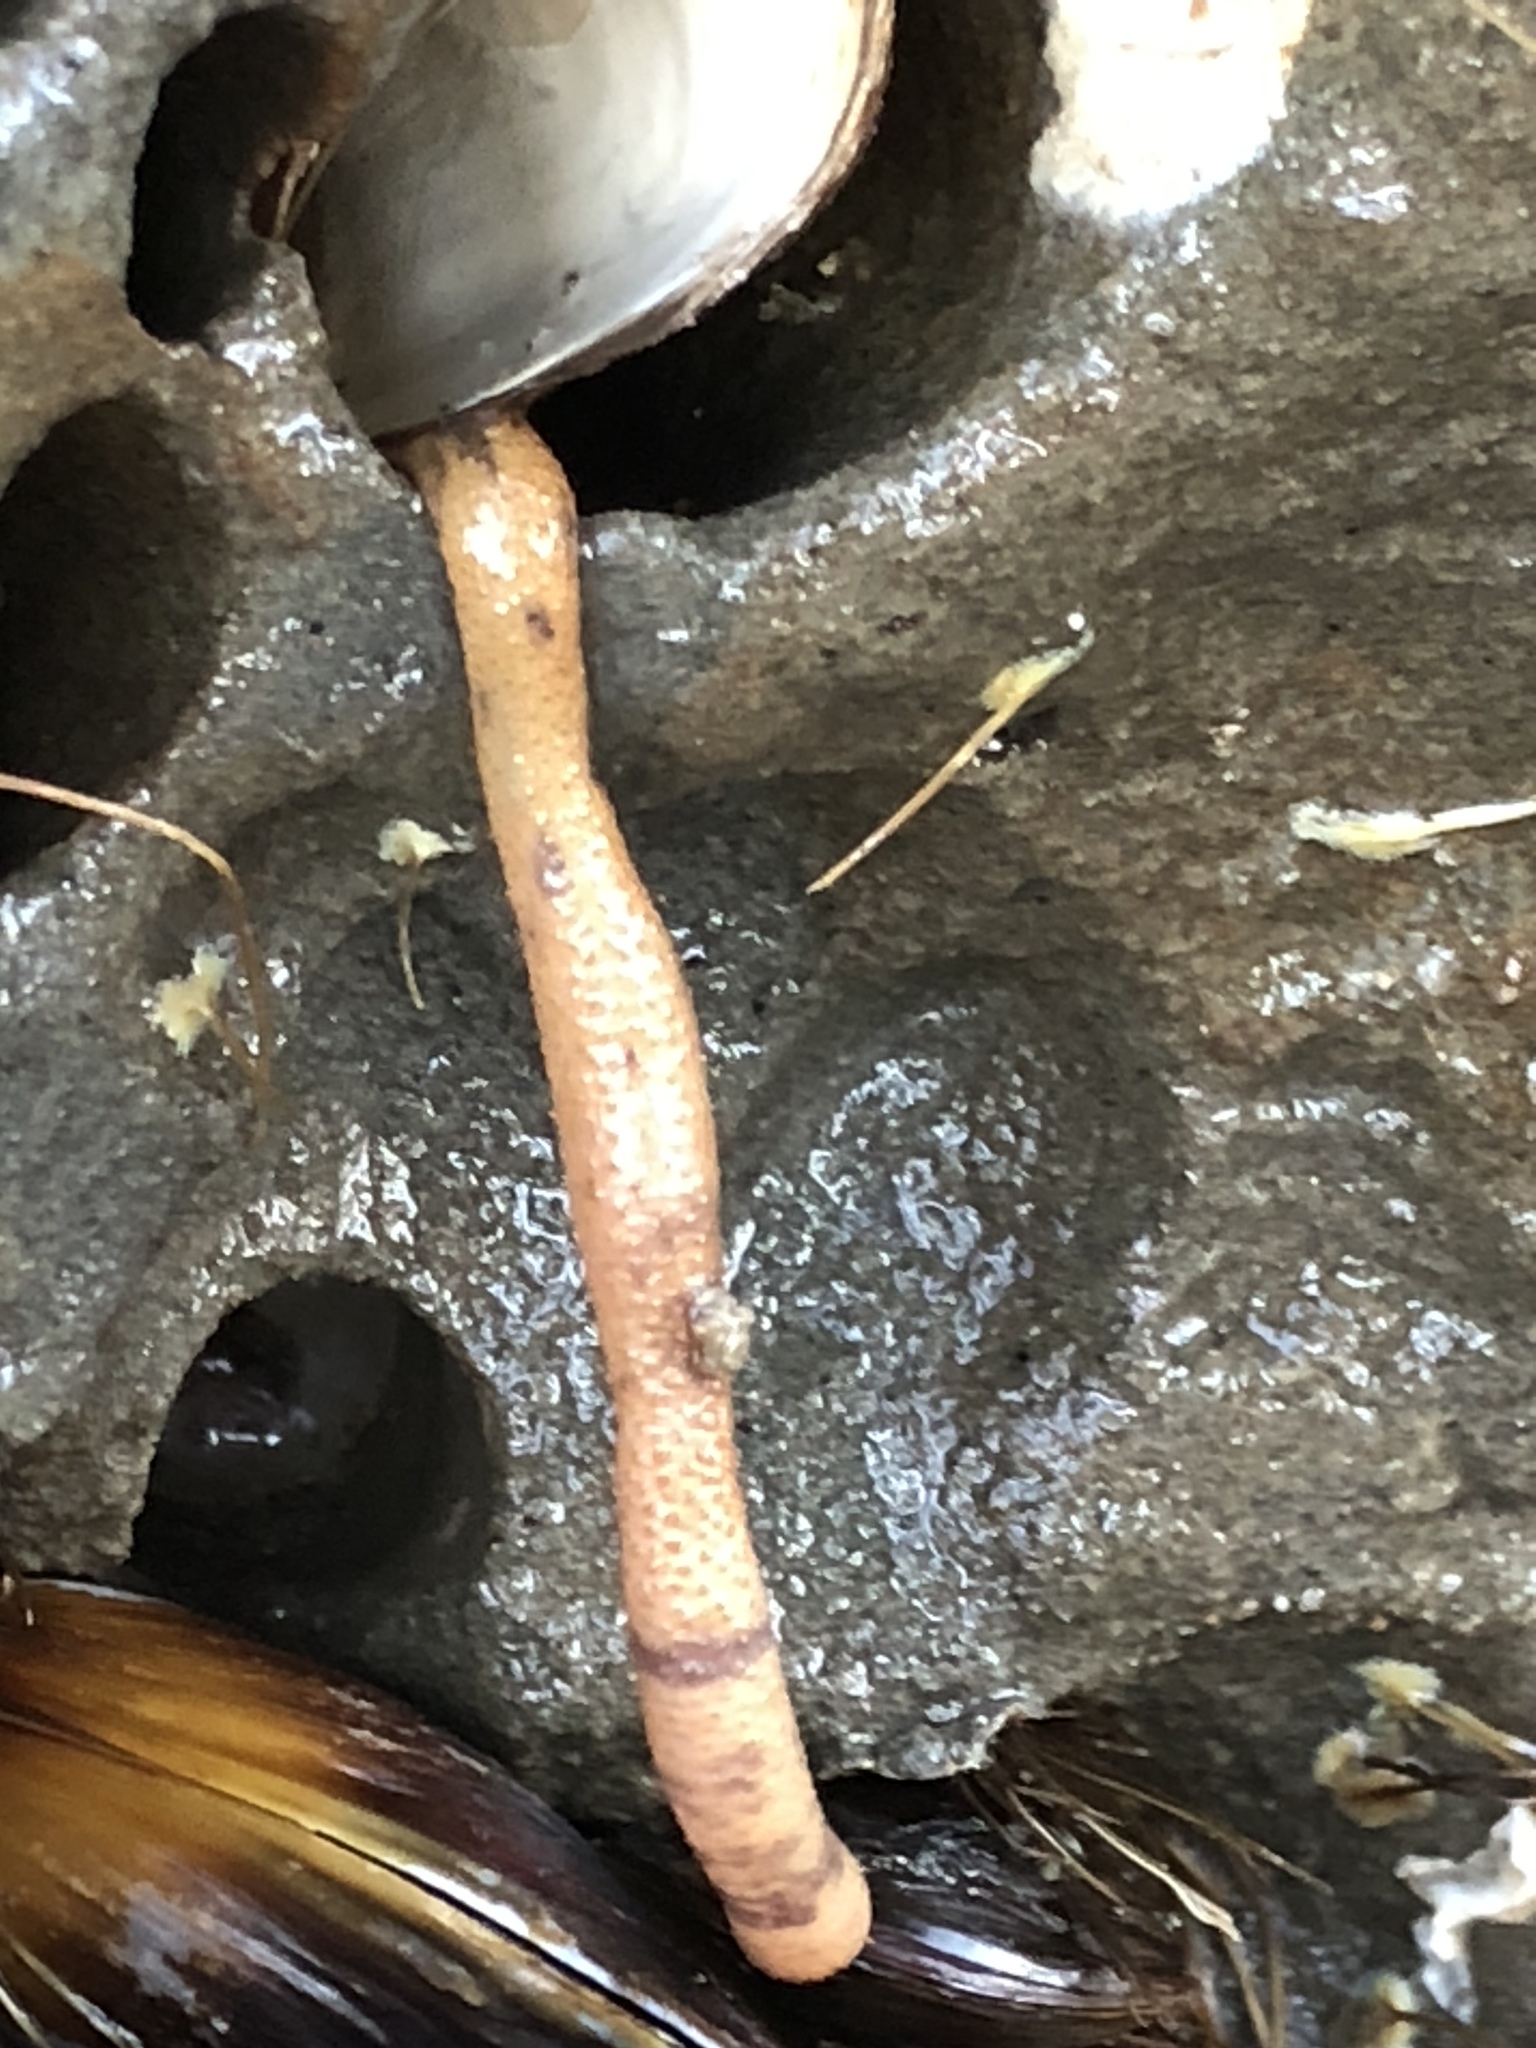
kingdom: Animalia
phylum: Sipuncula
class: Phascolosomatidea
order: Phascolosomatiformes
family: Phascolosomatidae
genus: Phascolosoma
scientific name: Phascolosoma agassizii
